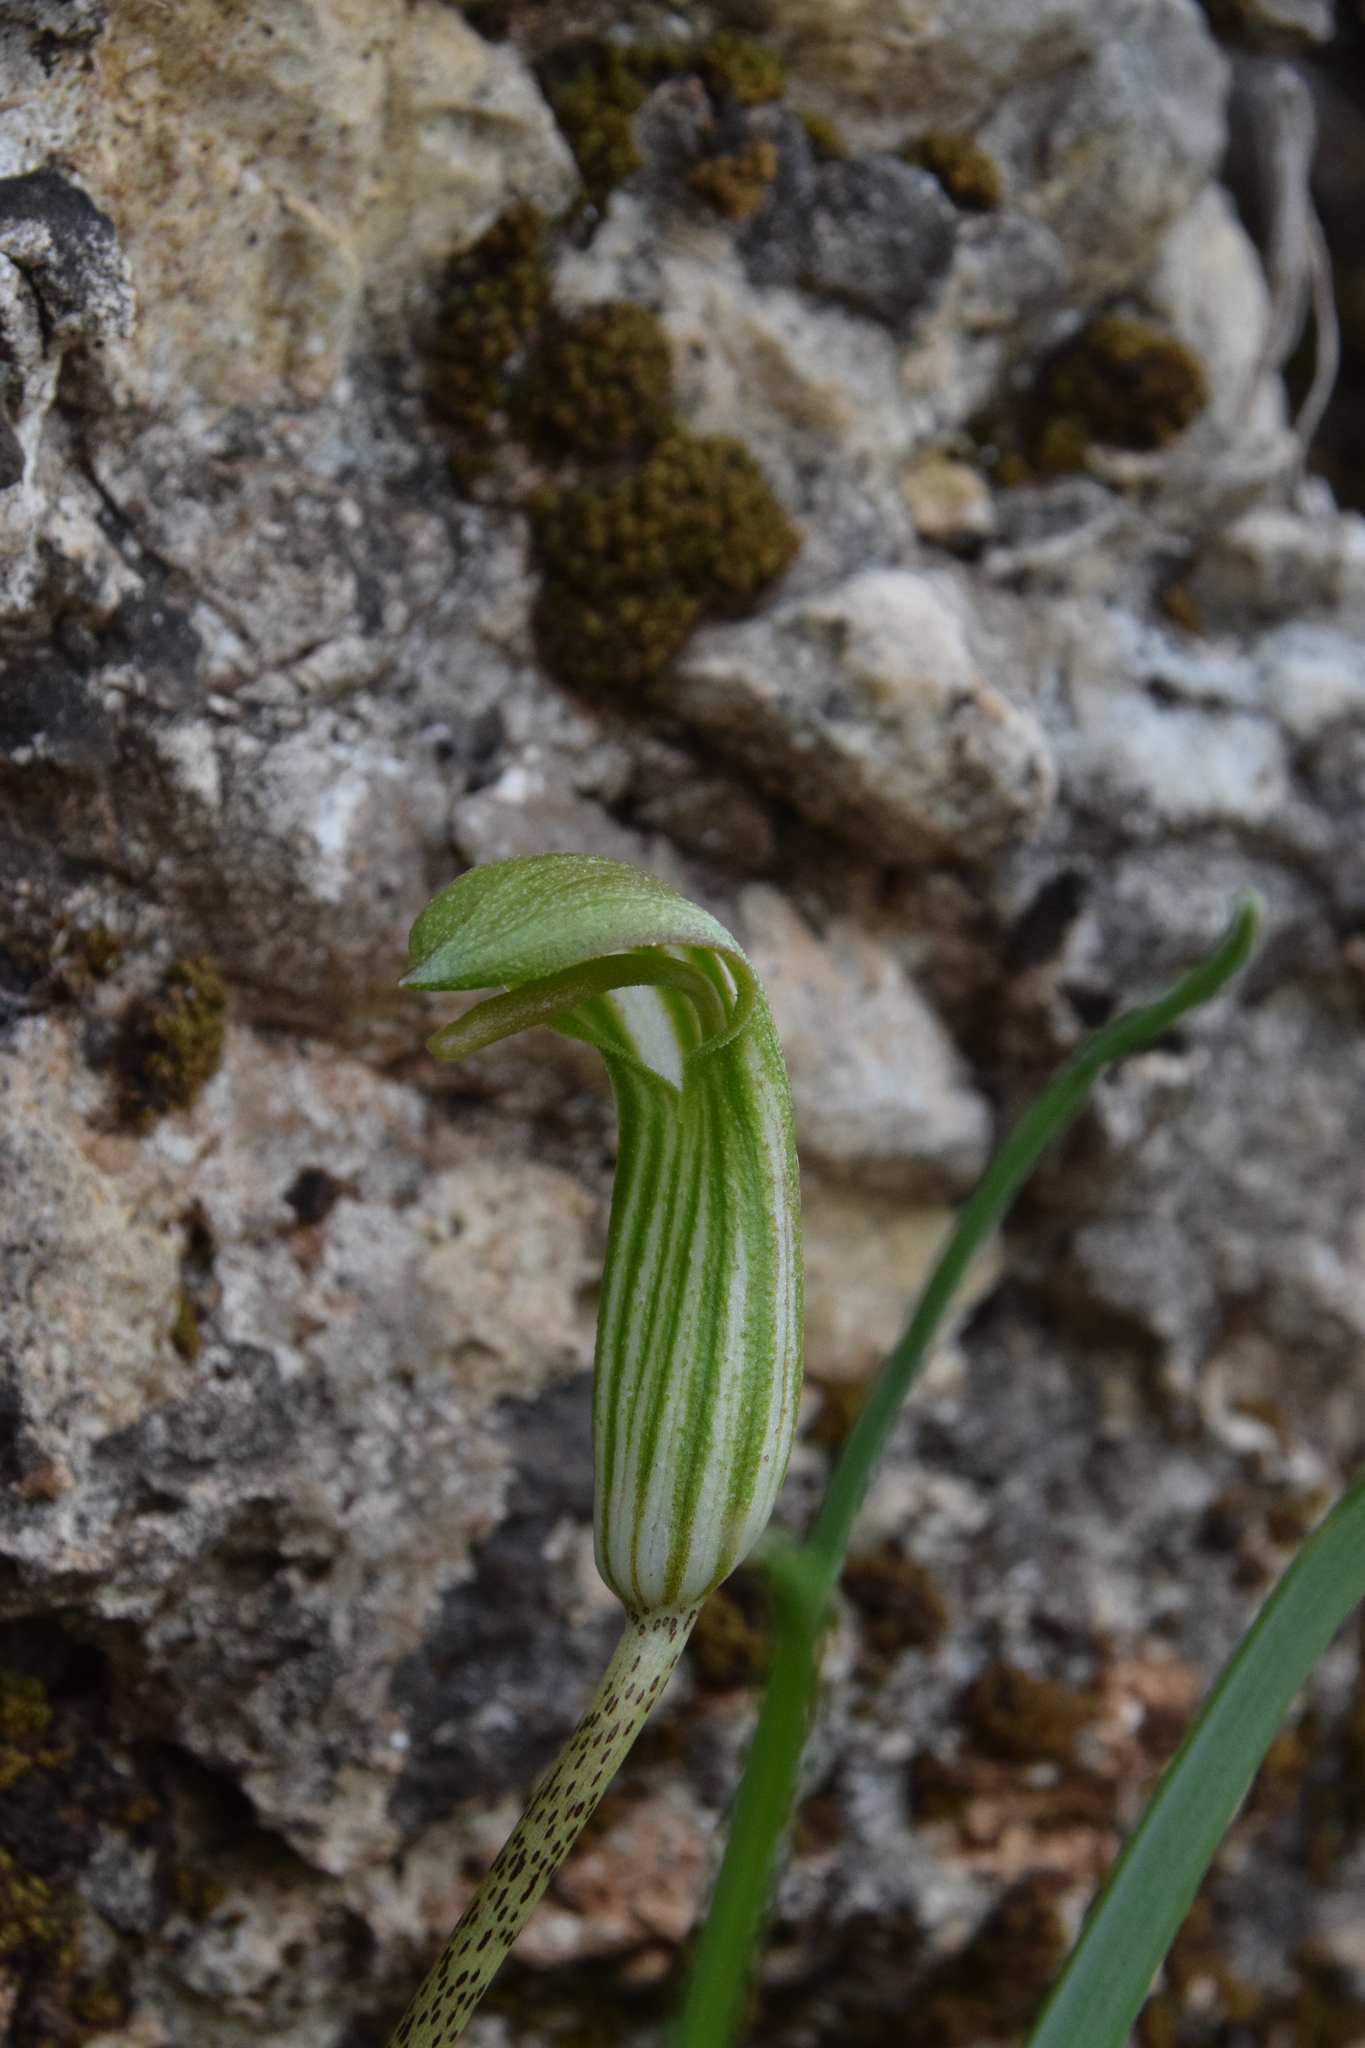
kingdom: Plantae
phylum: Tracheophyta
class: Liliopsida
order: Alismatales
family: Araceae
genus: Arisarum
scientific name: Arisarum vulgare
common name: Common arisarum
